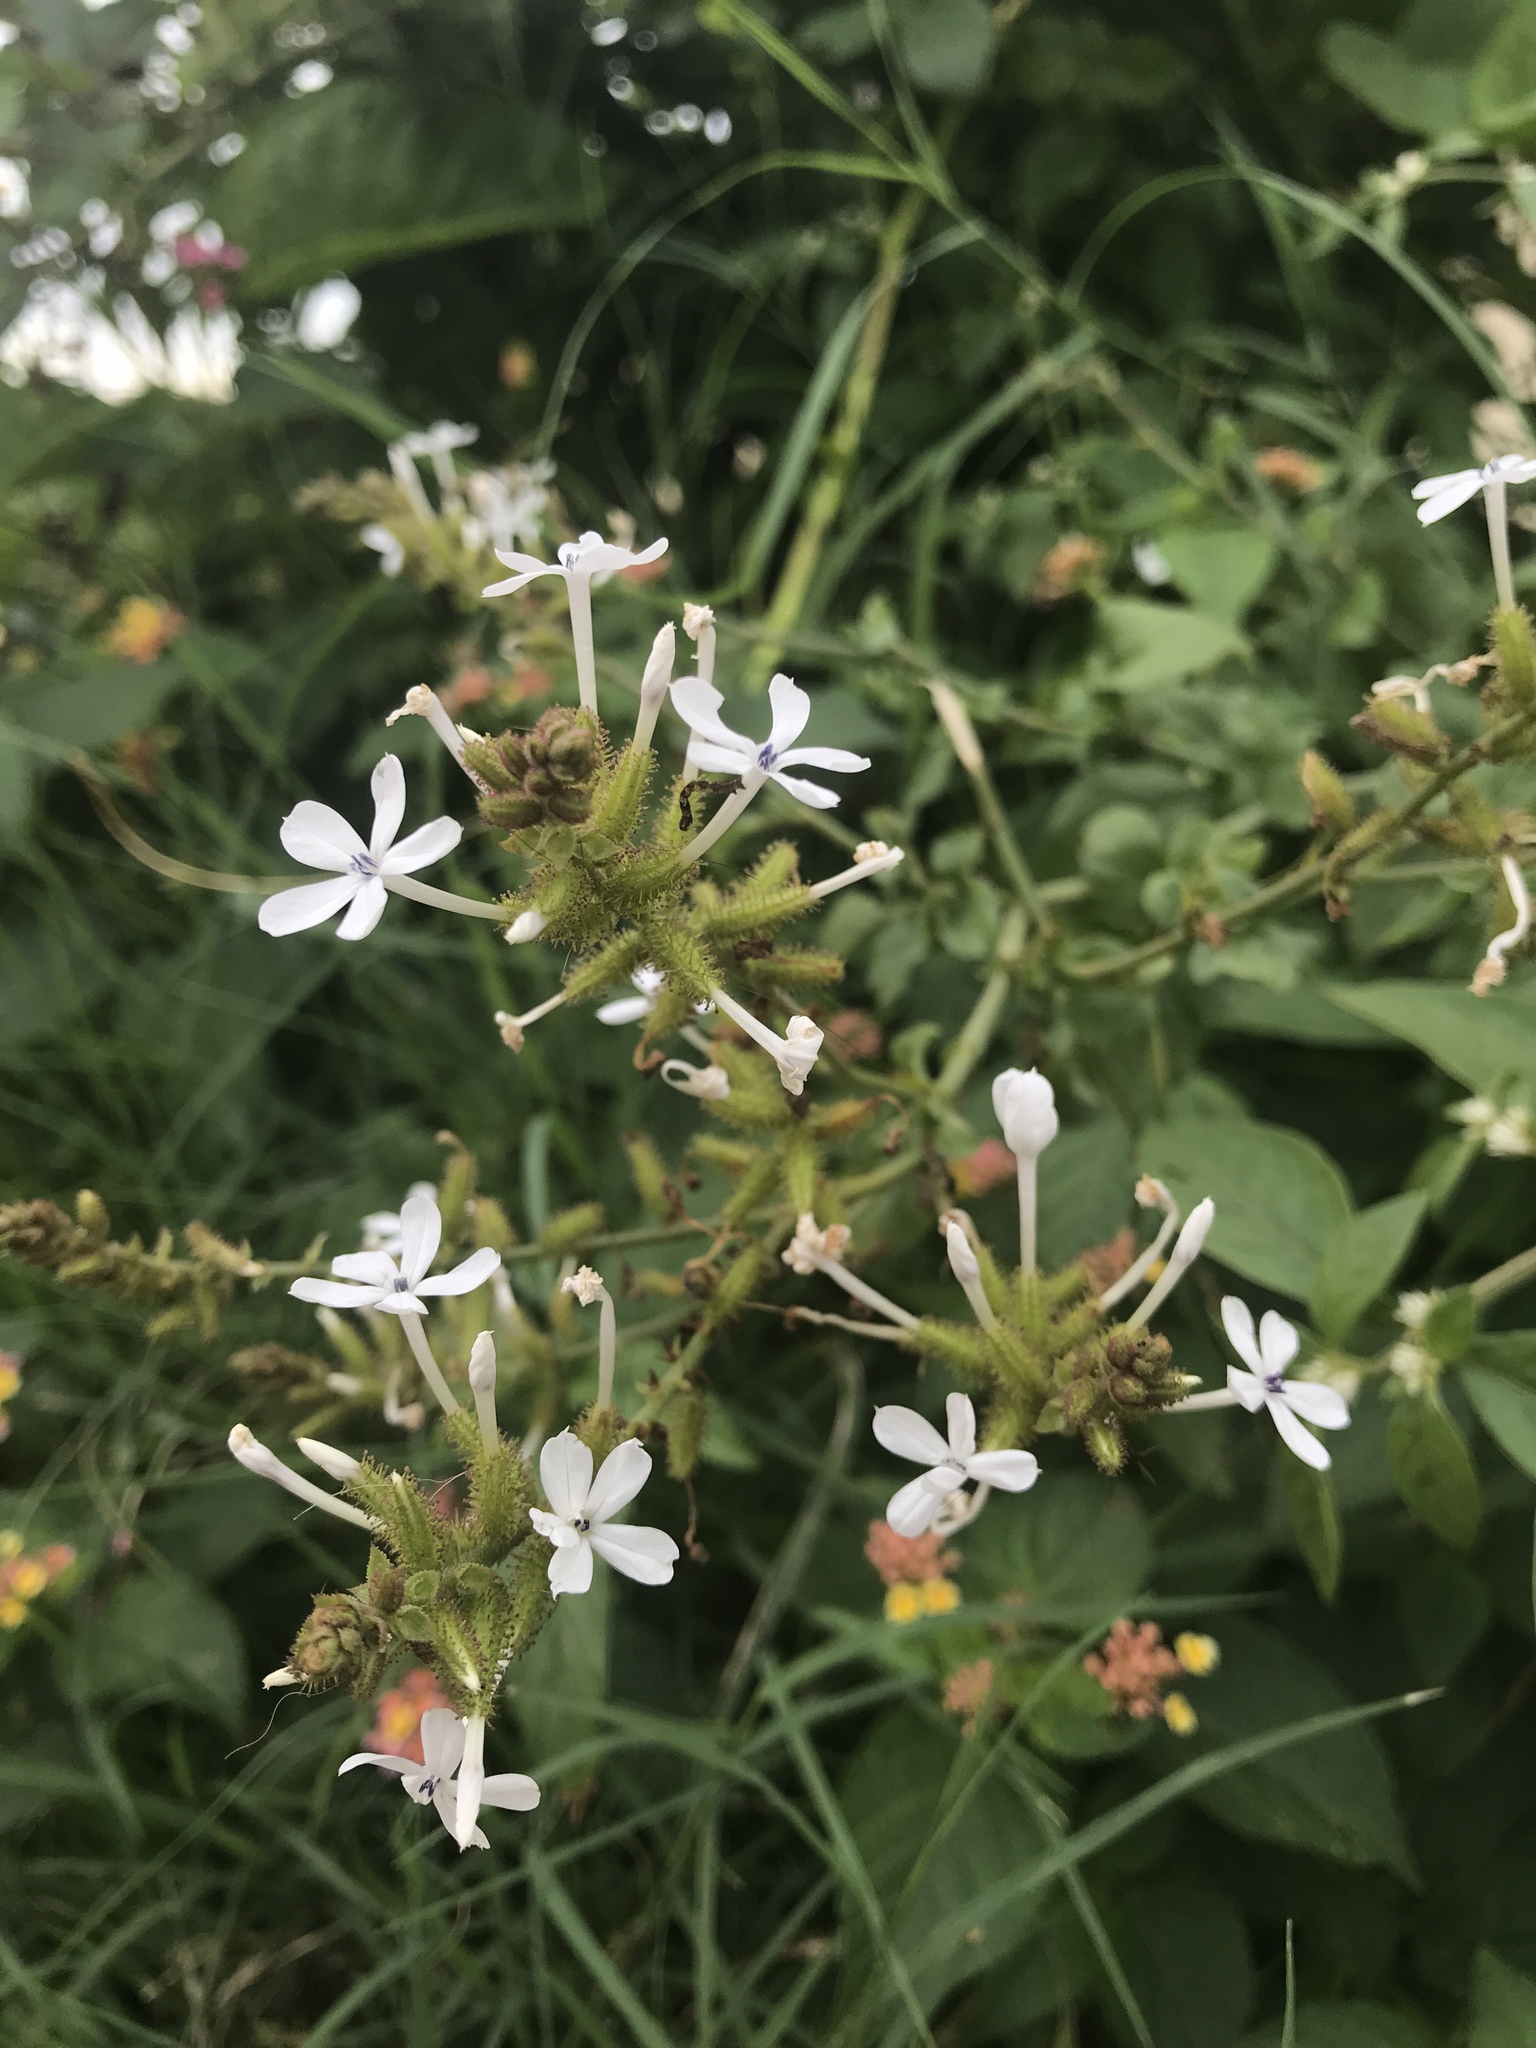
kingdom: Plantae
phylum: Tracheophyta
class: Magnoliopsida
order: Caryophyllales
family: Plumbaginaceae
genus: Plumbago
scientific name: Plumbago zeylanica
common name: Doctorbush
